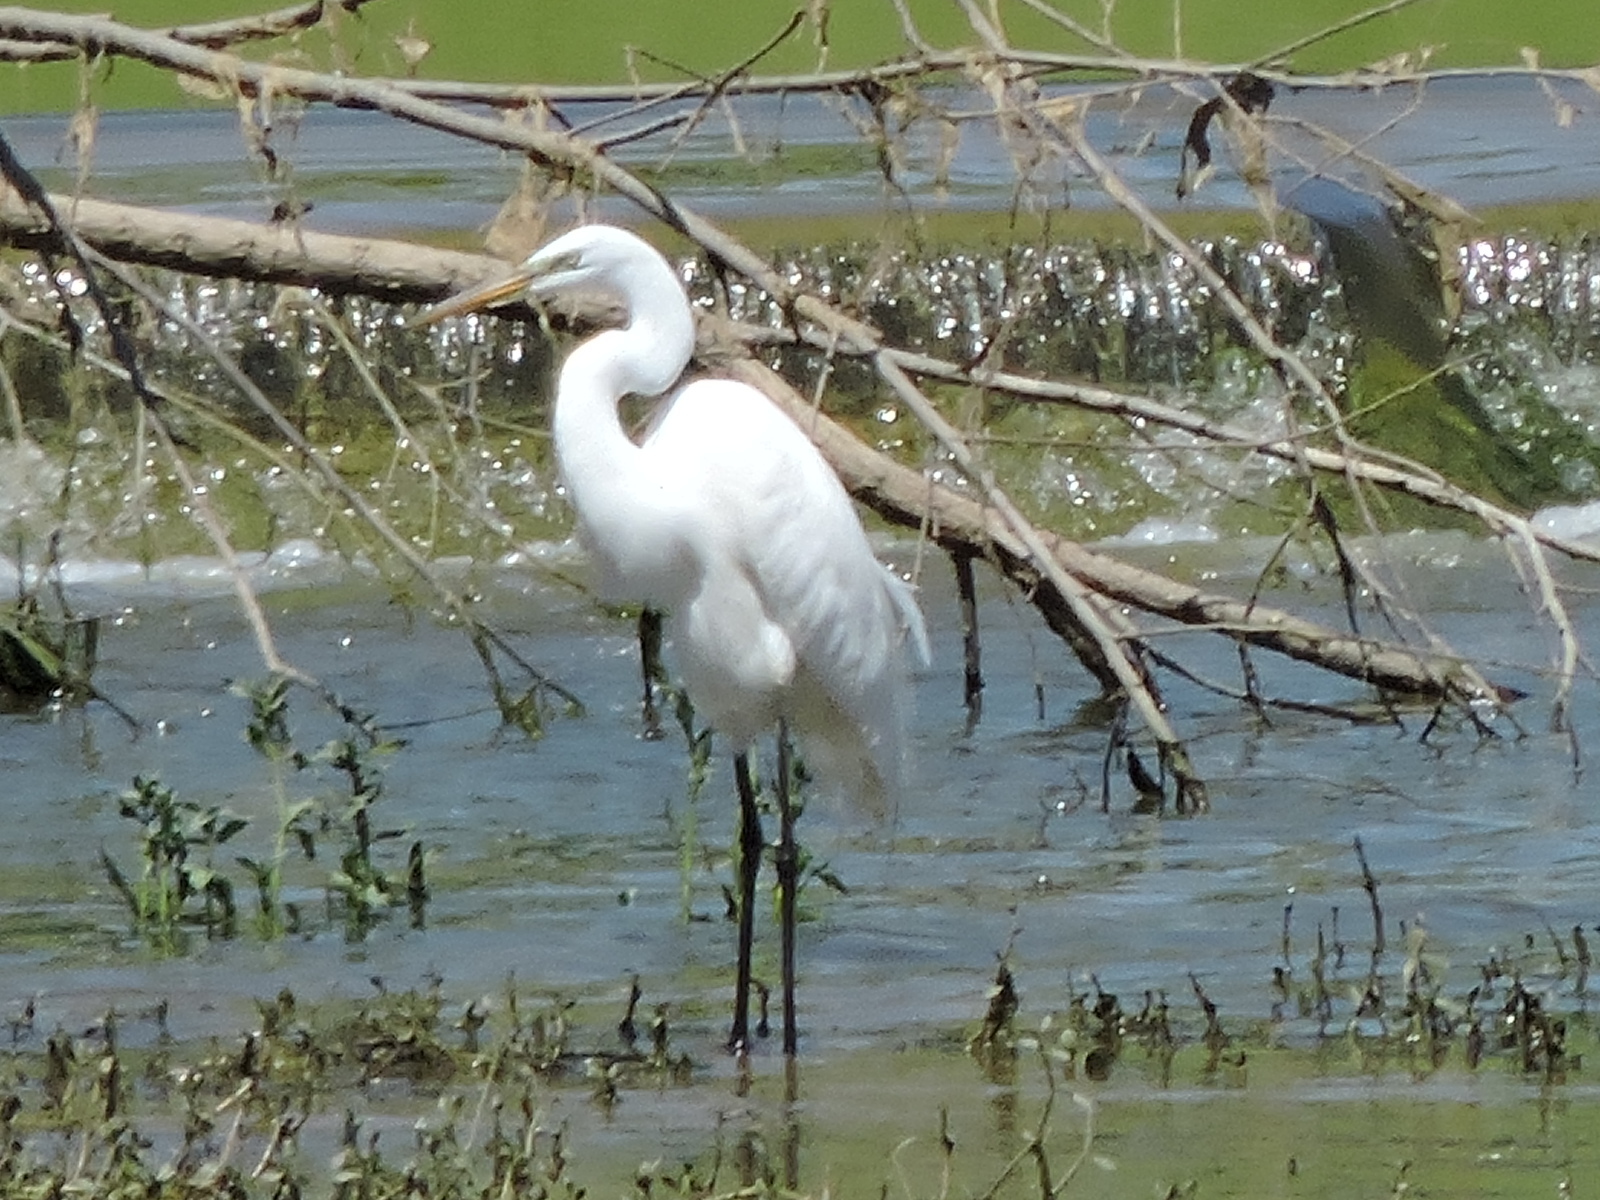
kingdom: Animalia
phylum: Chordata
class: Aves
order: Pelecaniformes
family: Ardeidae
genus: Ardea
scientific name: Ardea alba
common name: Great egret
